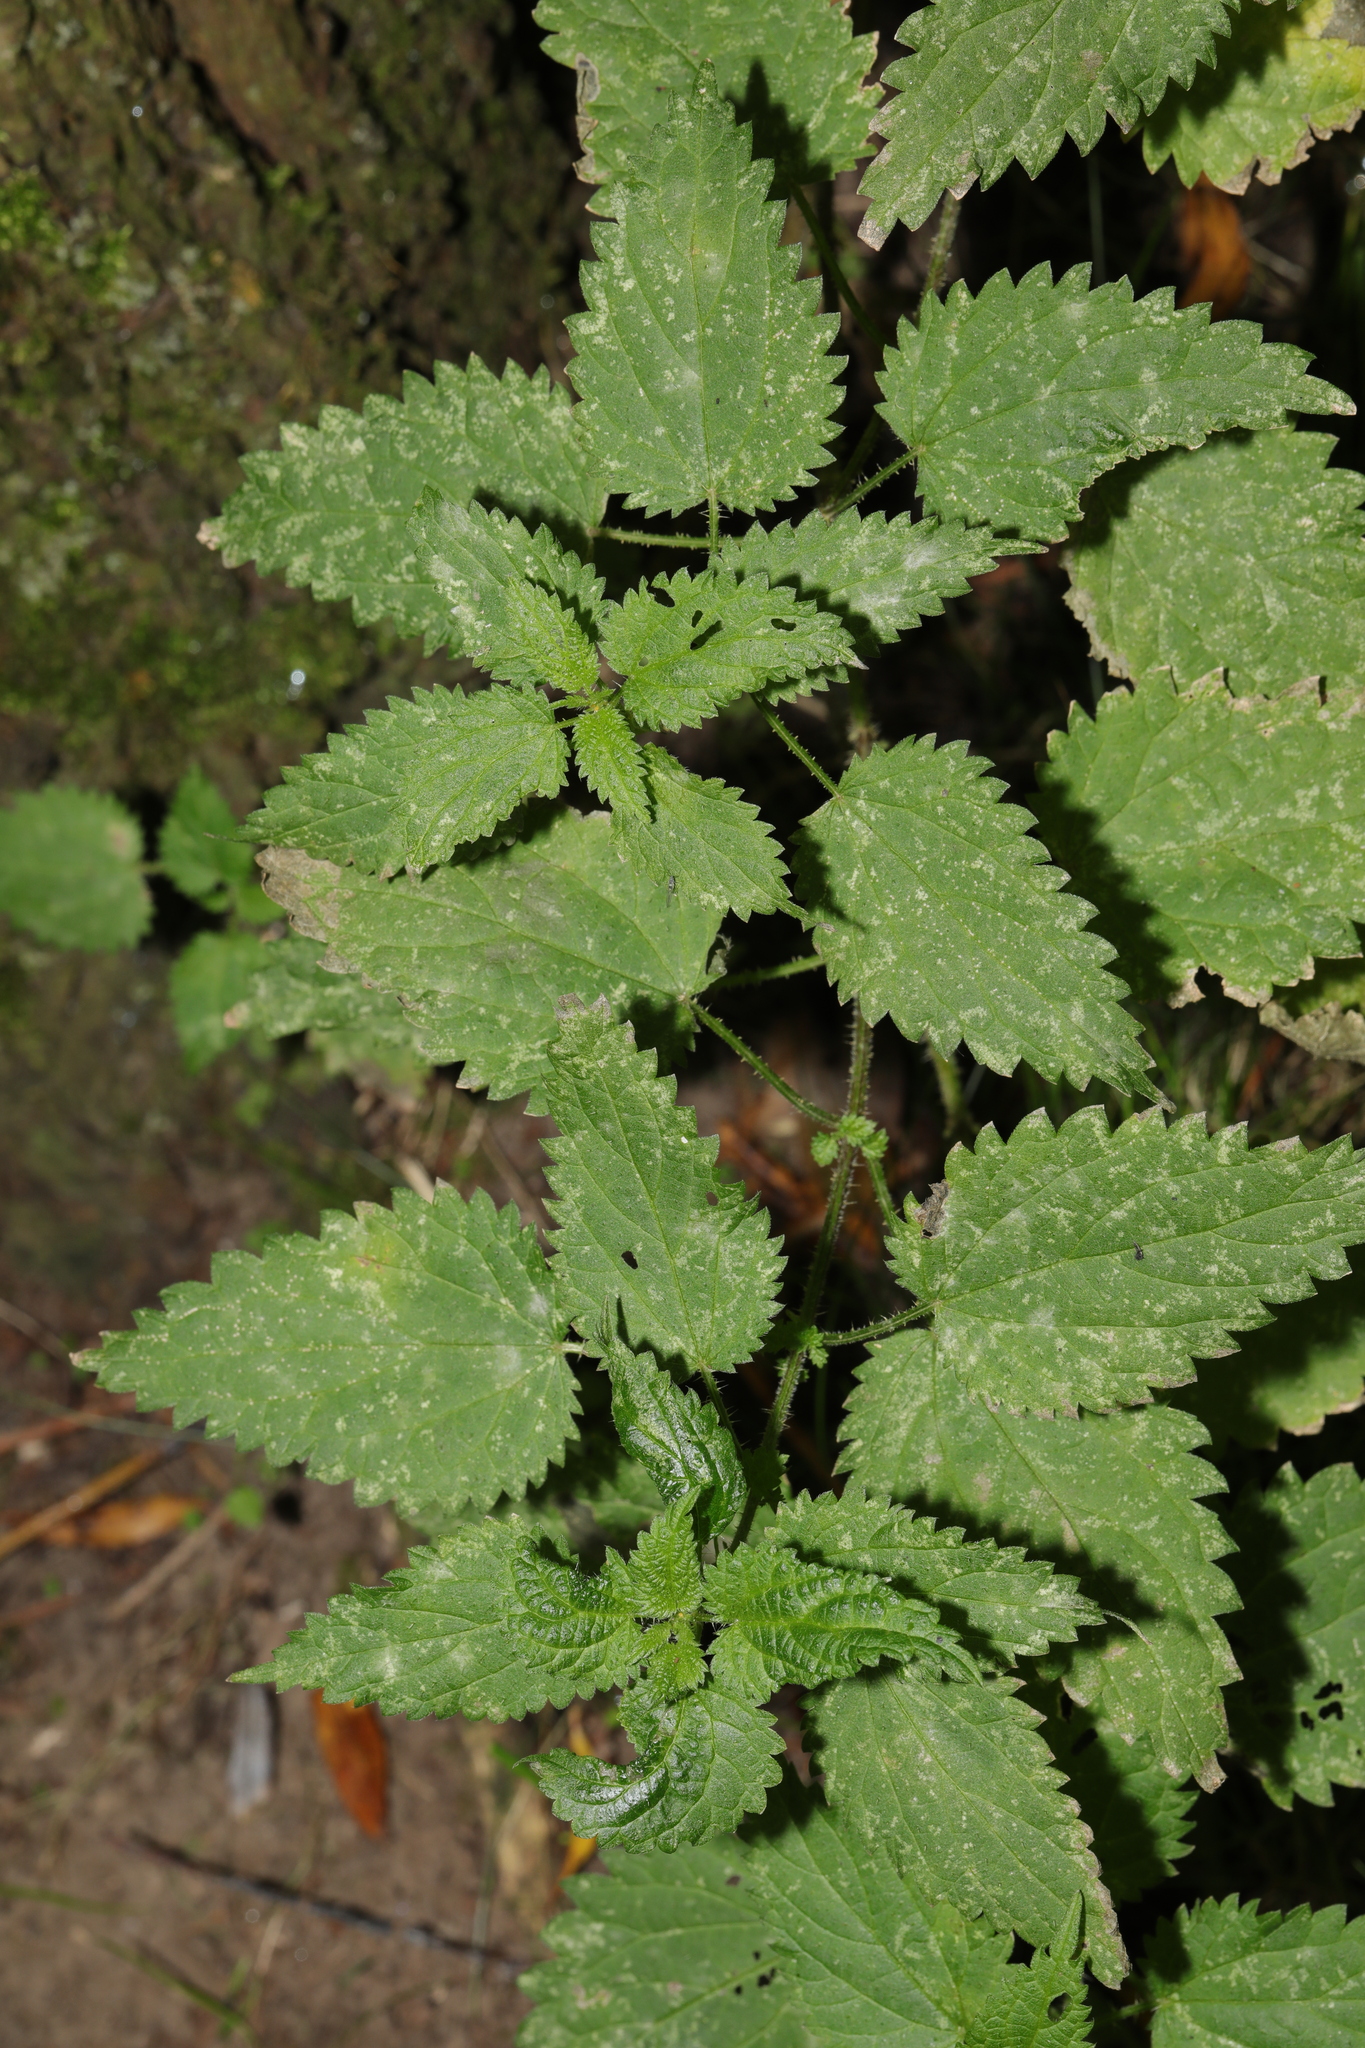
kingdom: Plantae
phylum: Tracheophyta
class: Magnoliopsida
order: Rosales
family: Urticaceae
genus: Urtica
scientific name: Urtica dioica
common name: Common nettle
